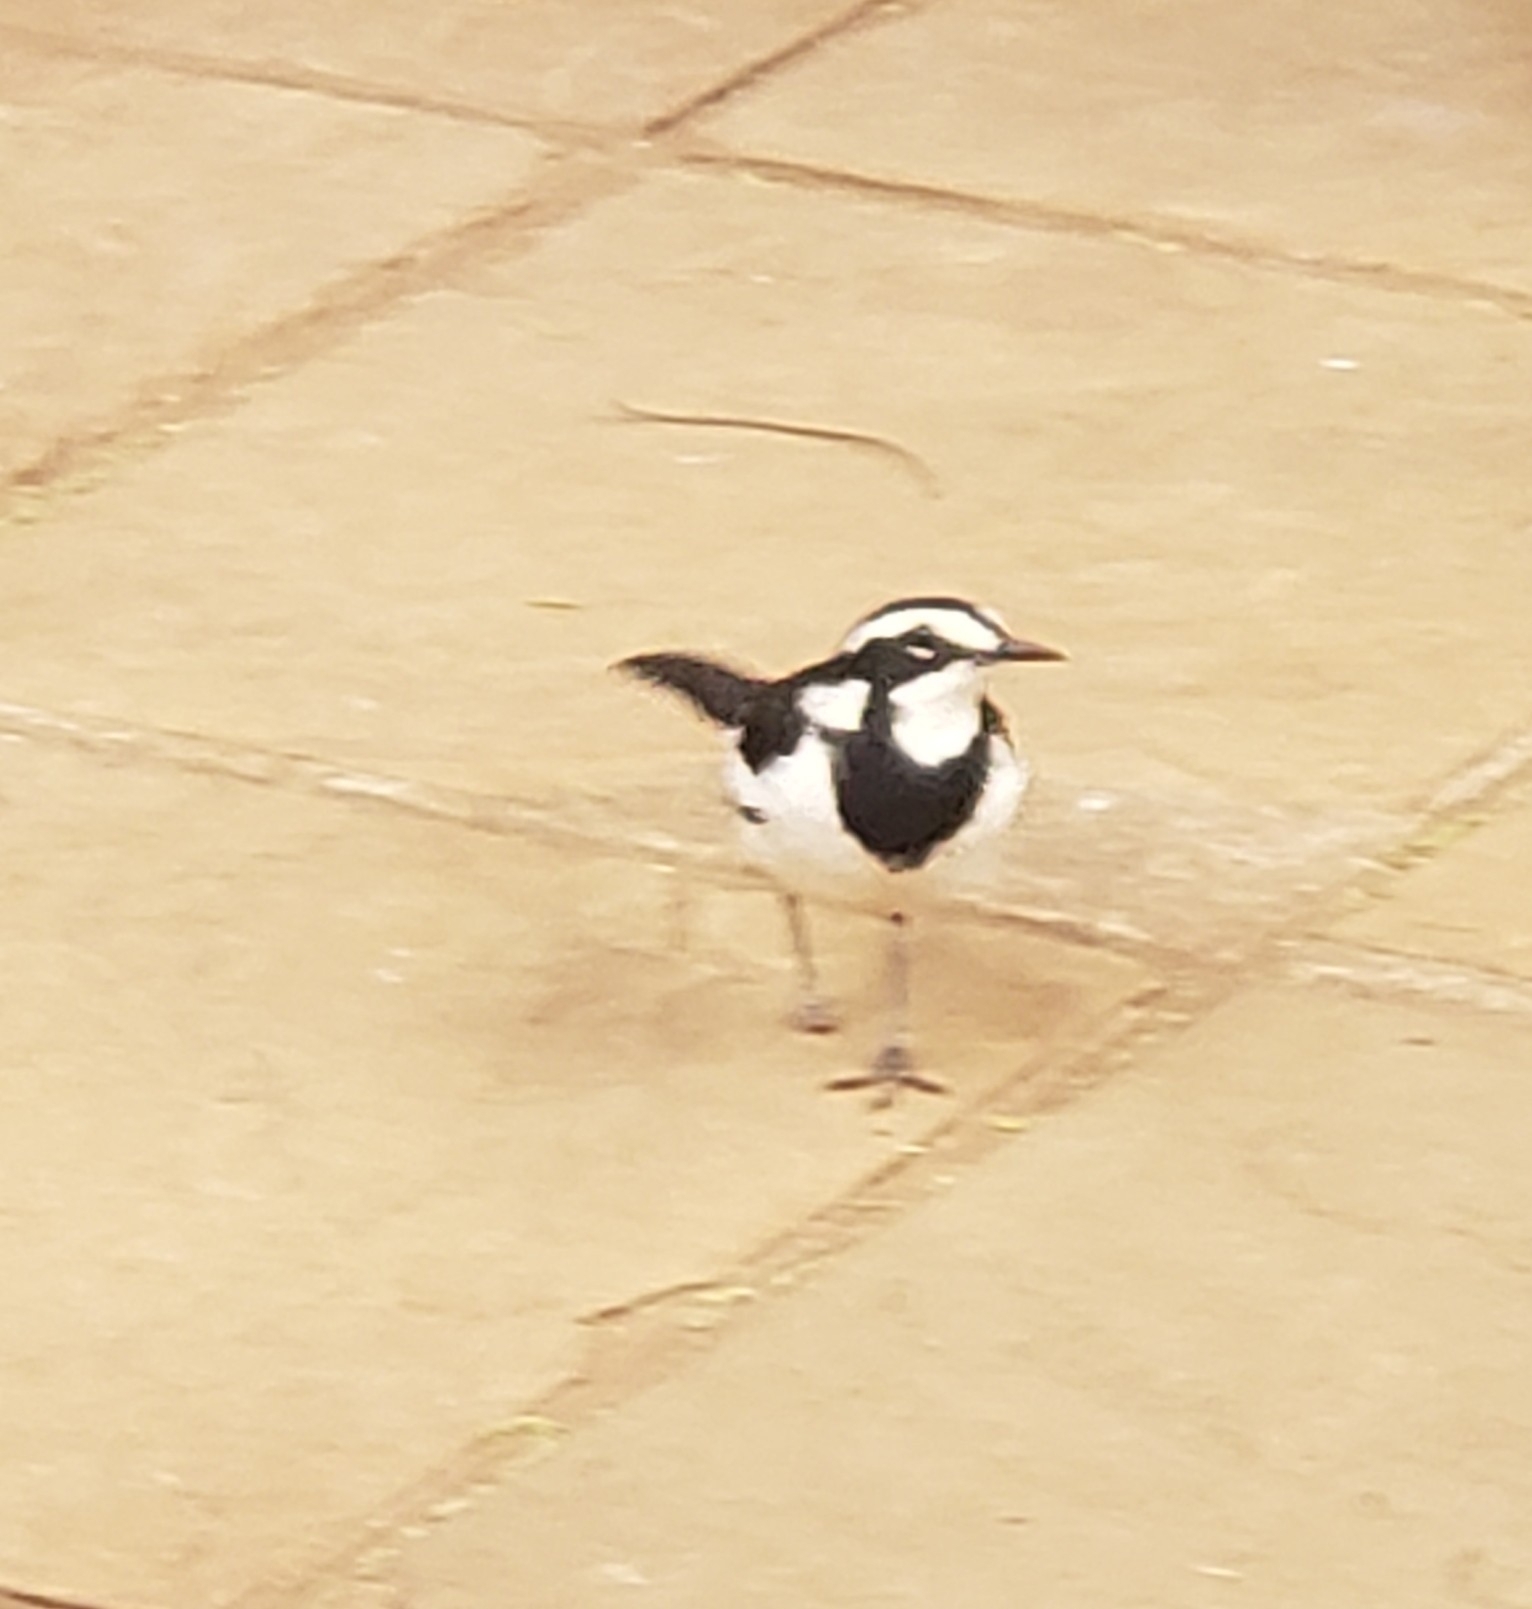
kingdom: Animalia
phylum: Chordata
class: Aves
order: Passeriformes
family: Motacillidae
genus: Motacilla
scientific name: Motacilla aguimp
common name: African pied wagtail
